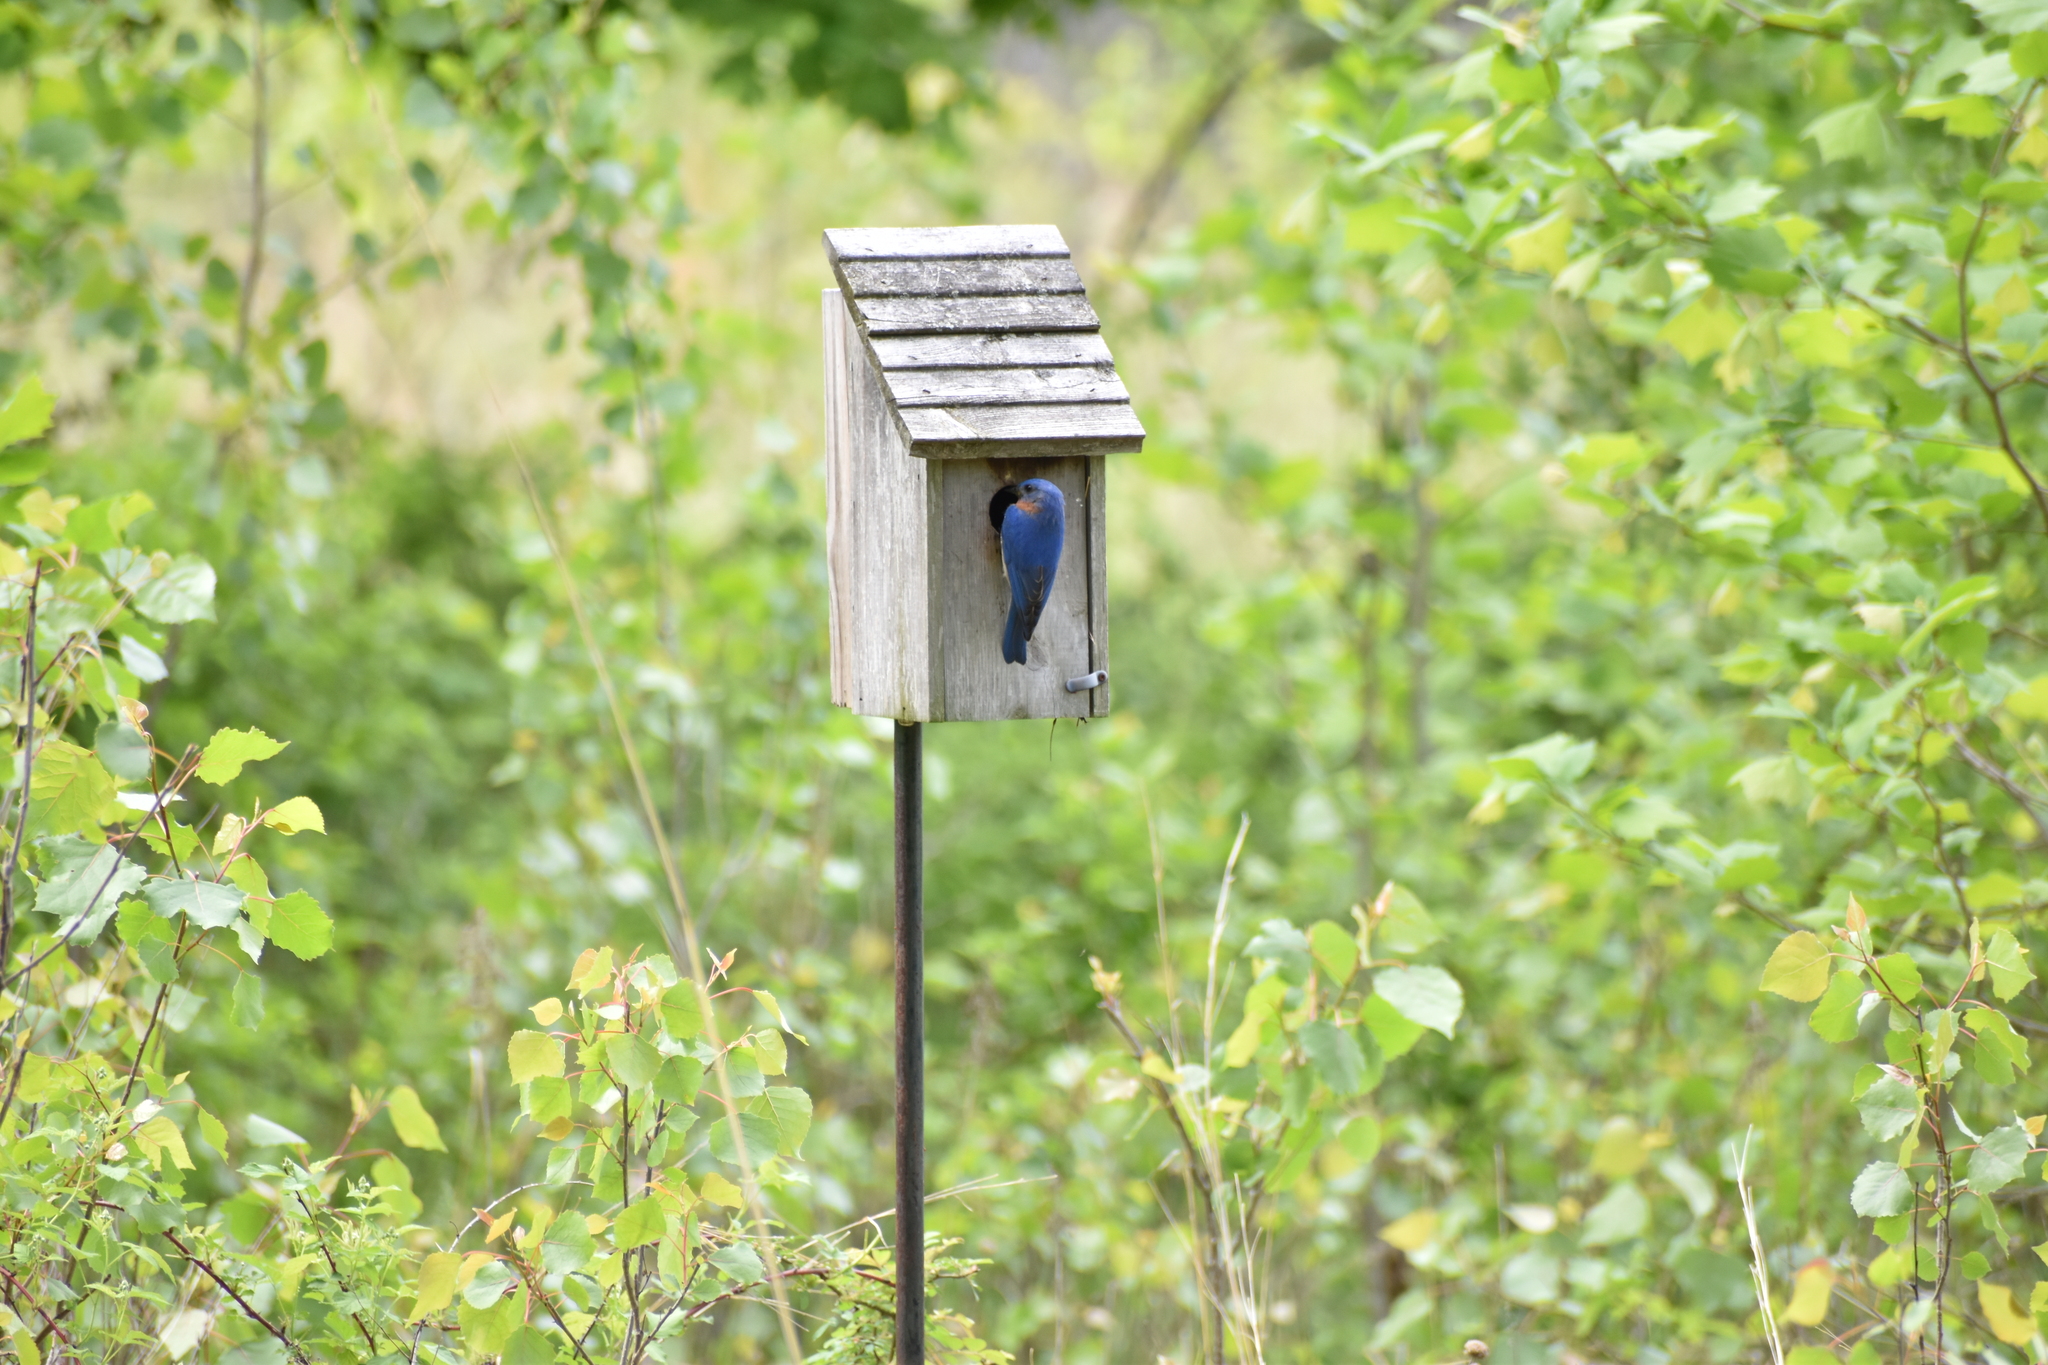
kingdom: Animalia
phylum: Chordata
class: Aves
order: Passeriformes
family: Turdidae
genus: Sialia
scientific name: Sialia sialis
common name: Eastern bluebird
